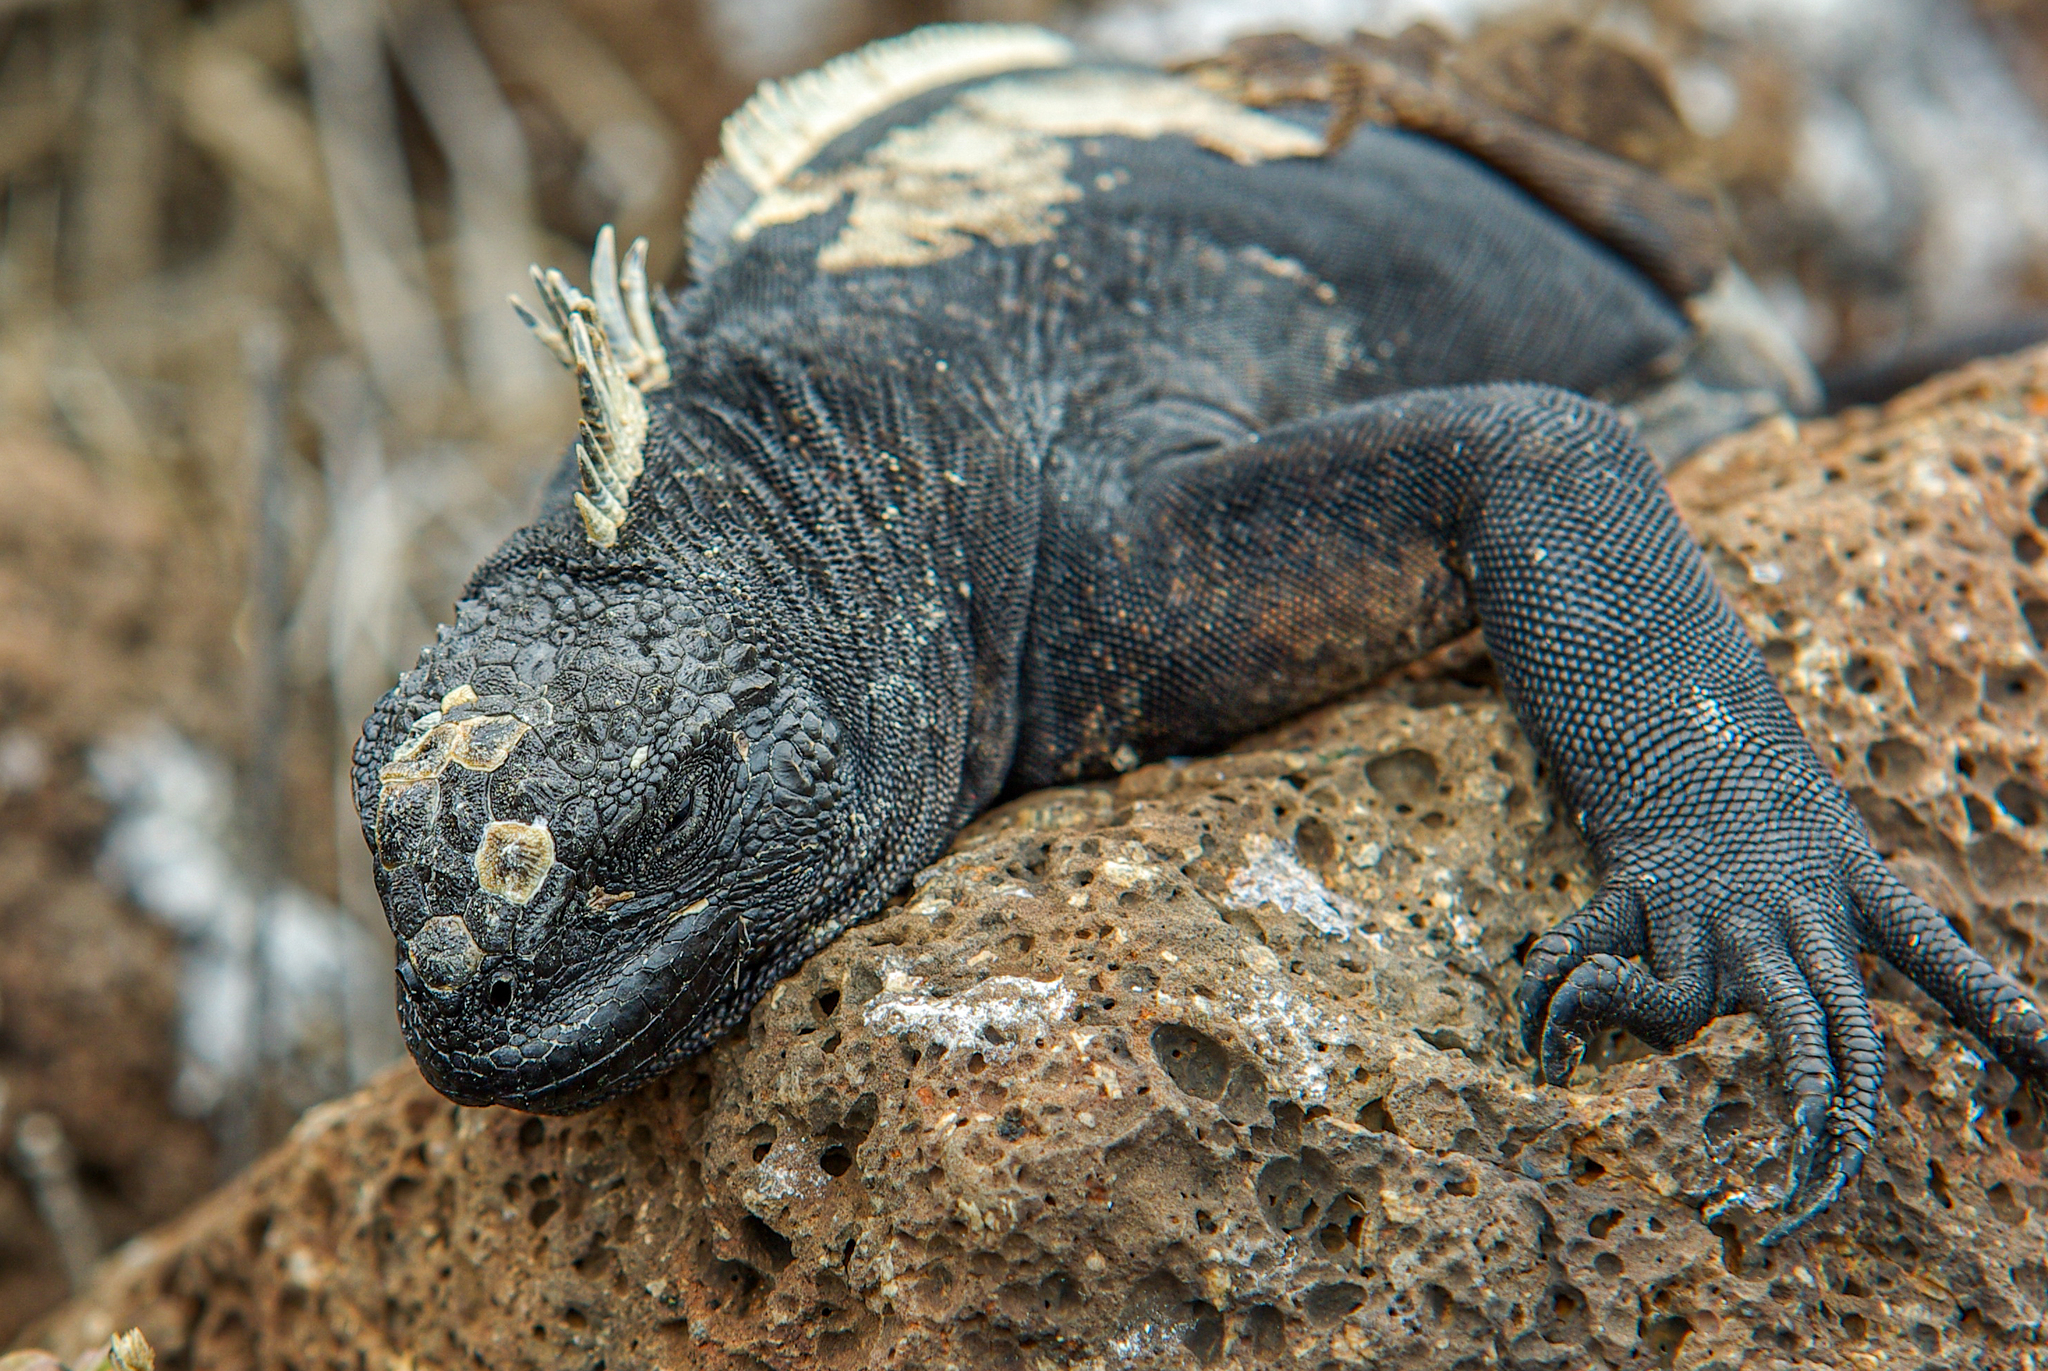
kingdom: Animalia
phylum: Chordata
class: Squamata
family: Iguanidae
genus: Amblyrhynchus
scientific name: Amblyrhynchus cristatus
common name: Marine iguana
